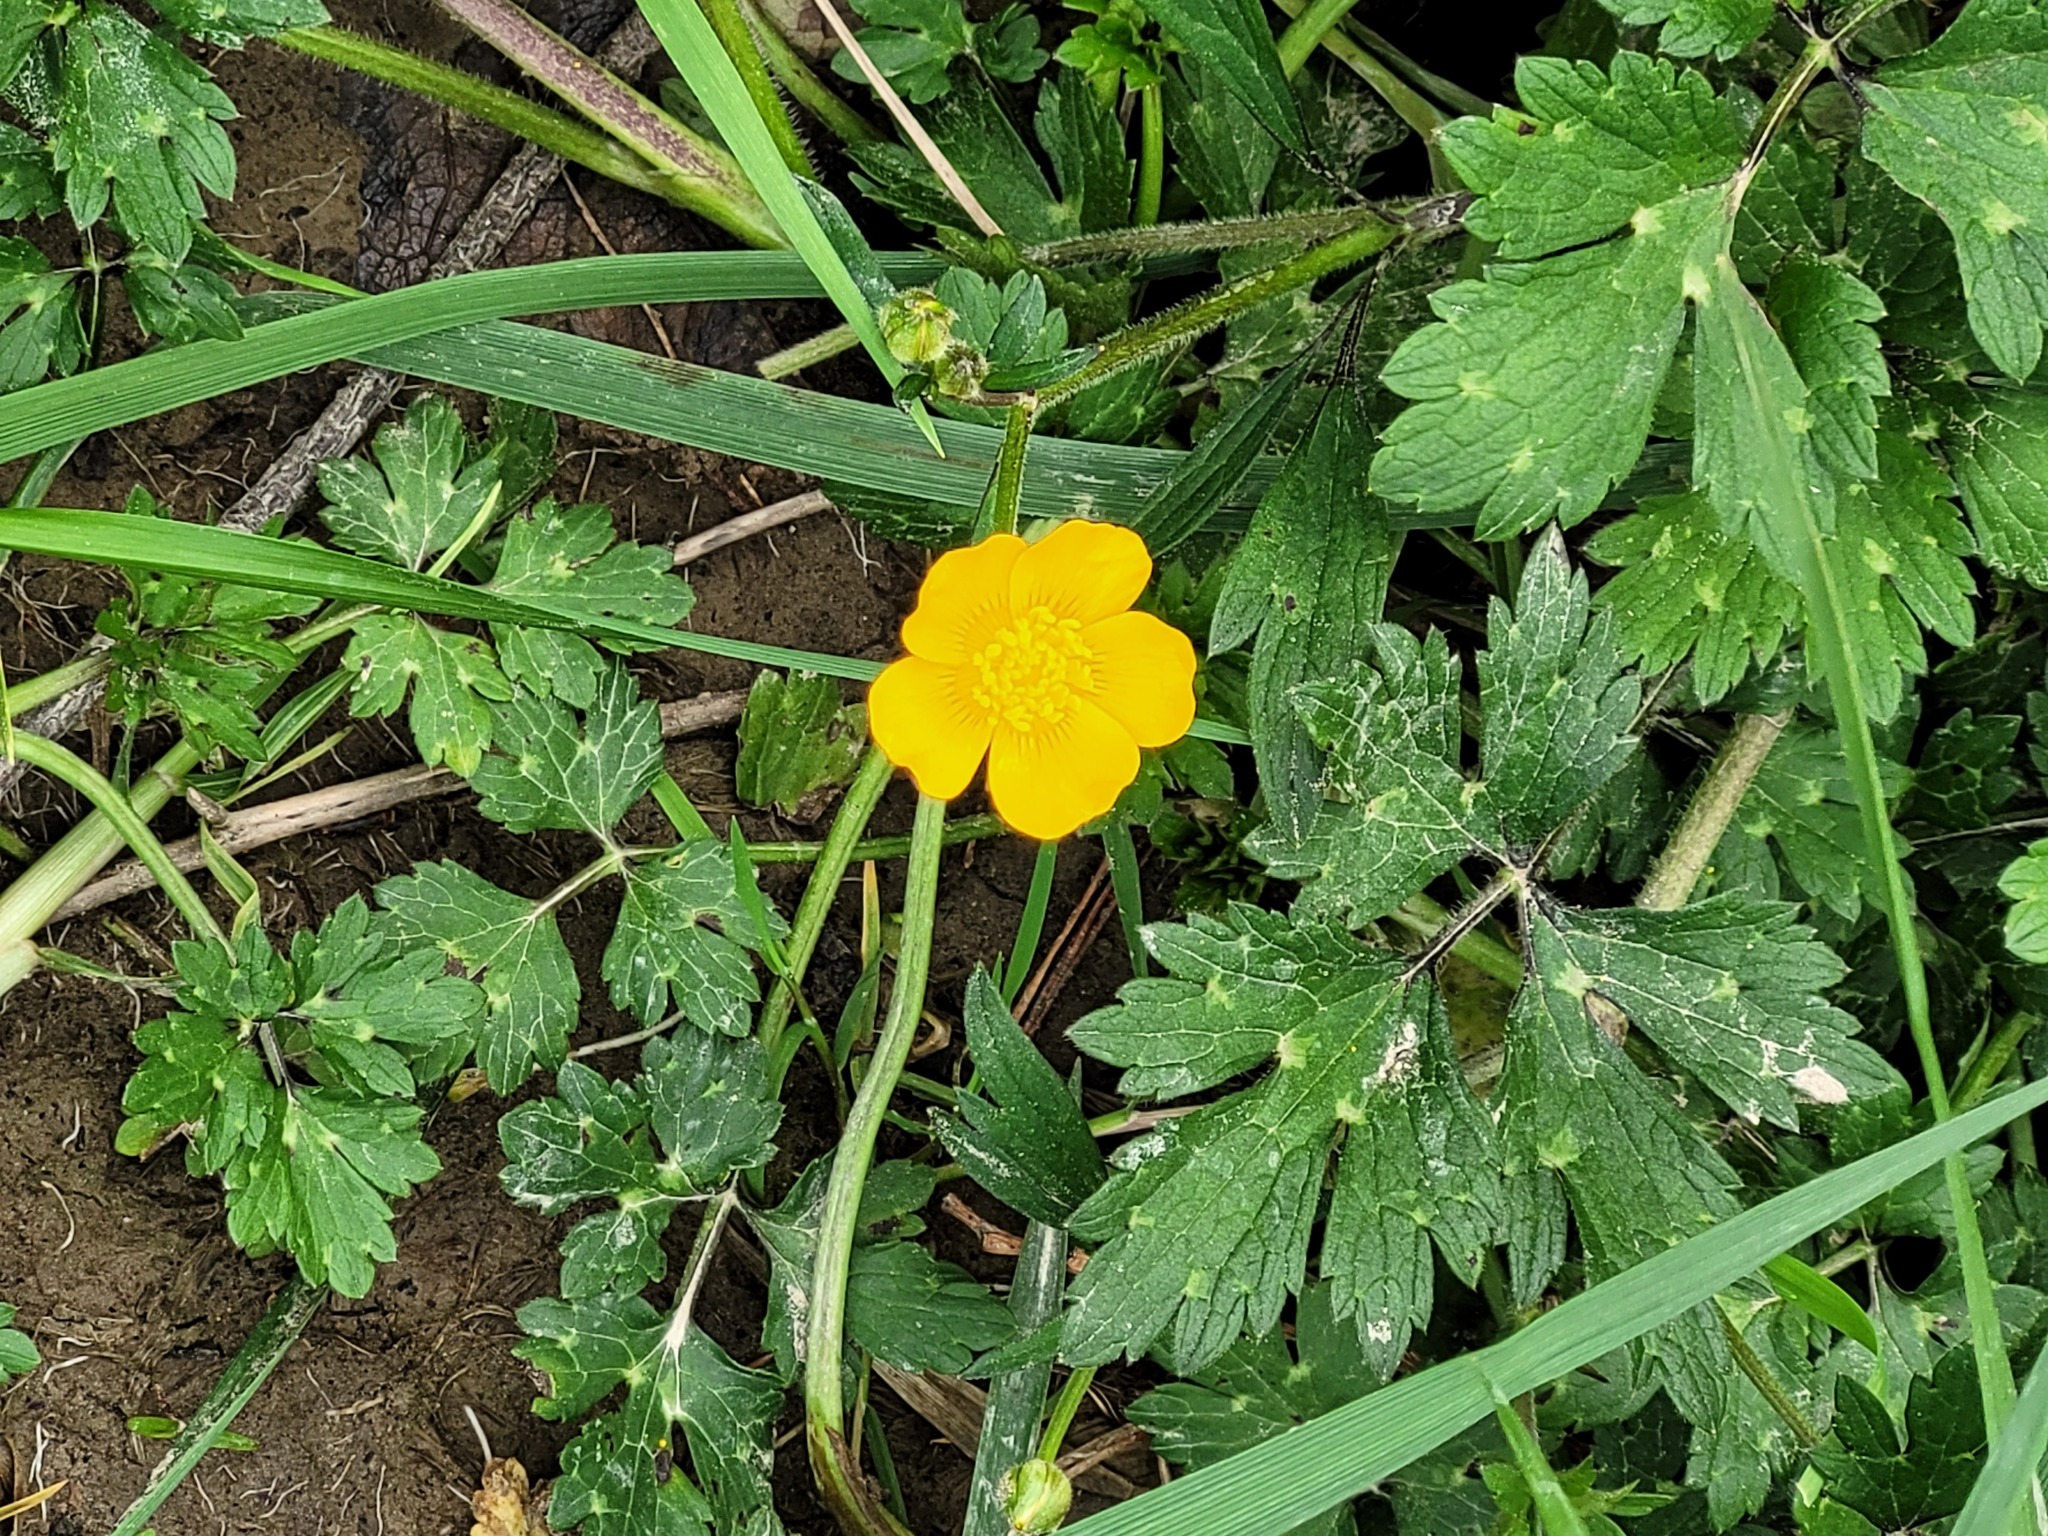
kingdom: Plantae
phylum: Tracheophyta
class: Magnoliopsida
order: Ranunculales
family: Ranunculaceae
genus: Ranunculus
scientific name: Ranunculus repens
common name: Creeping buttercup
